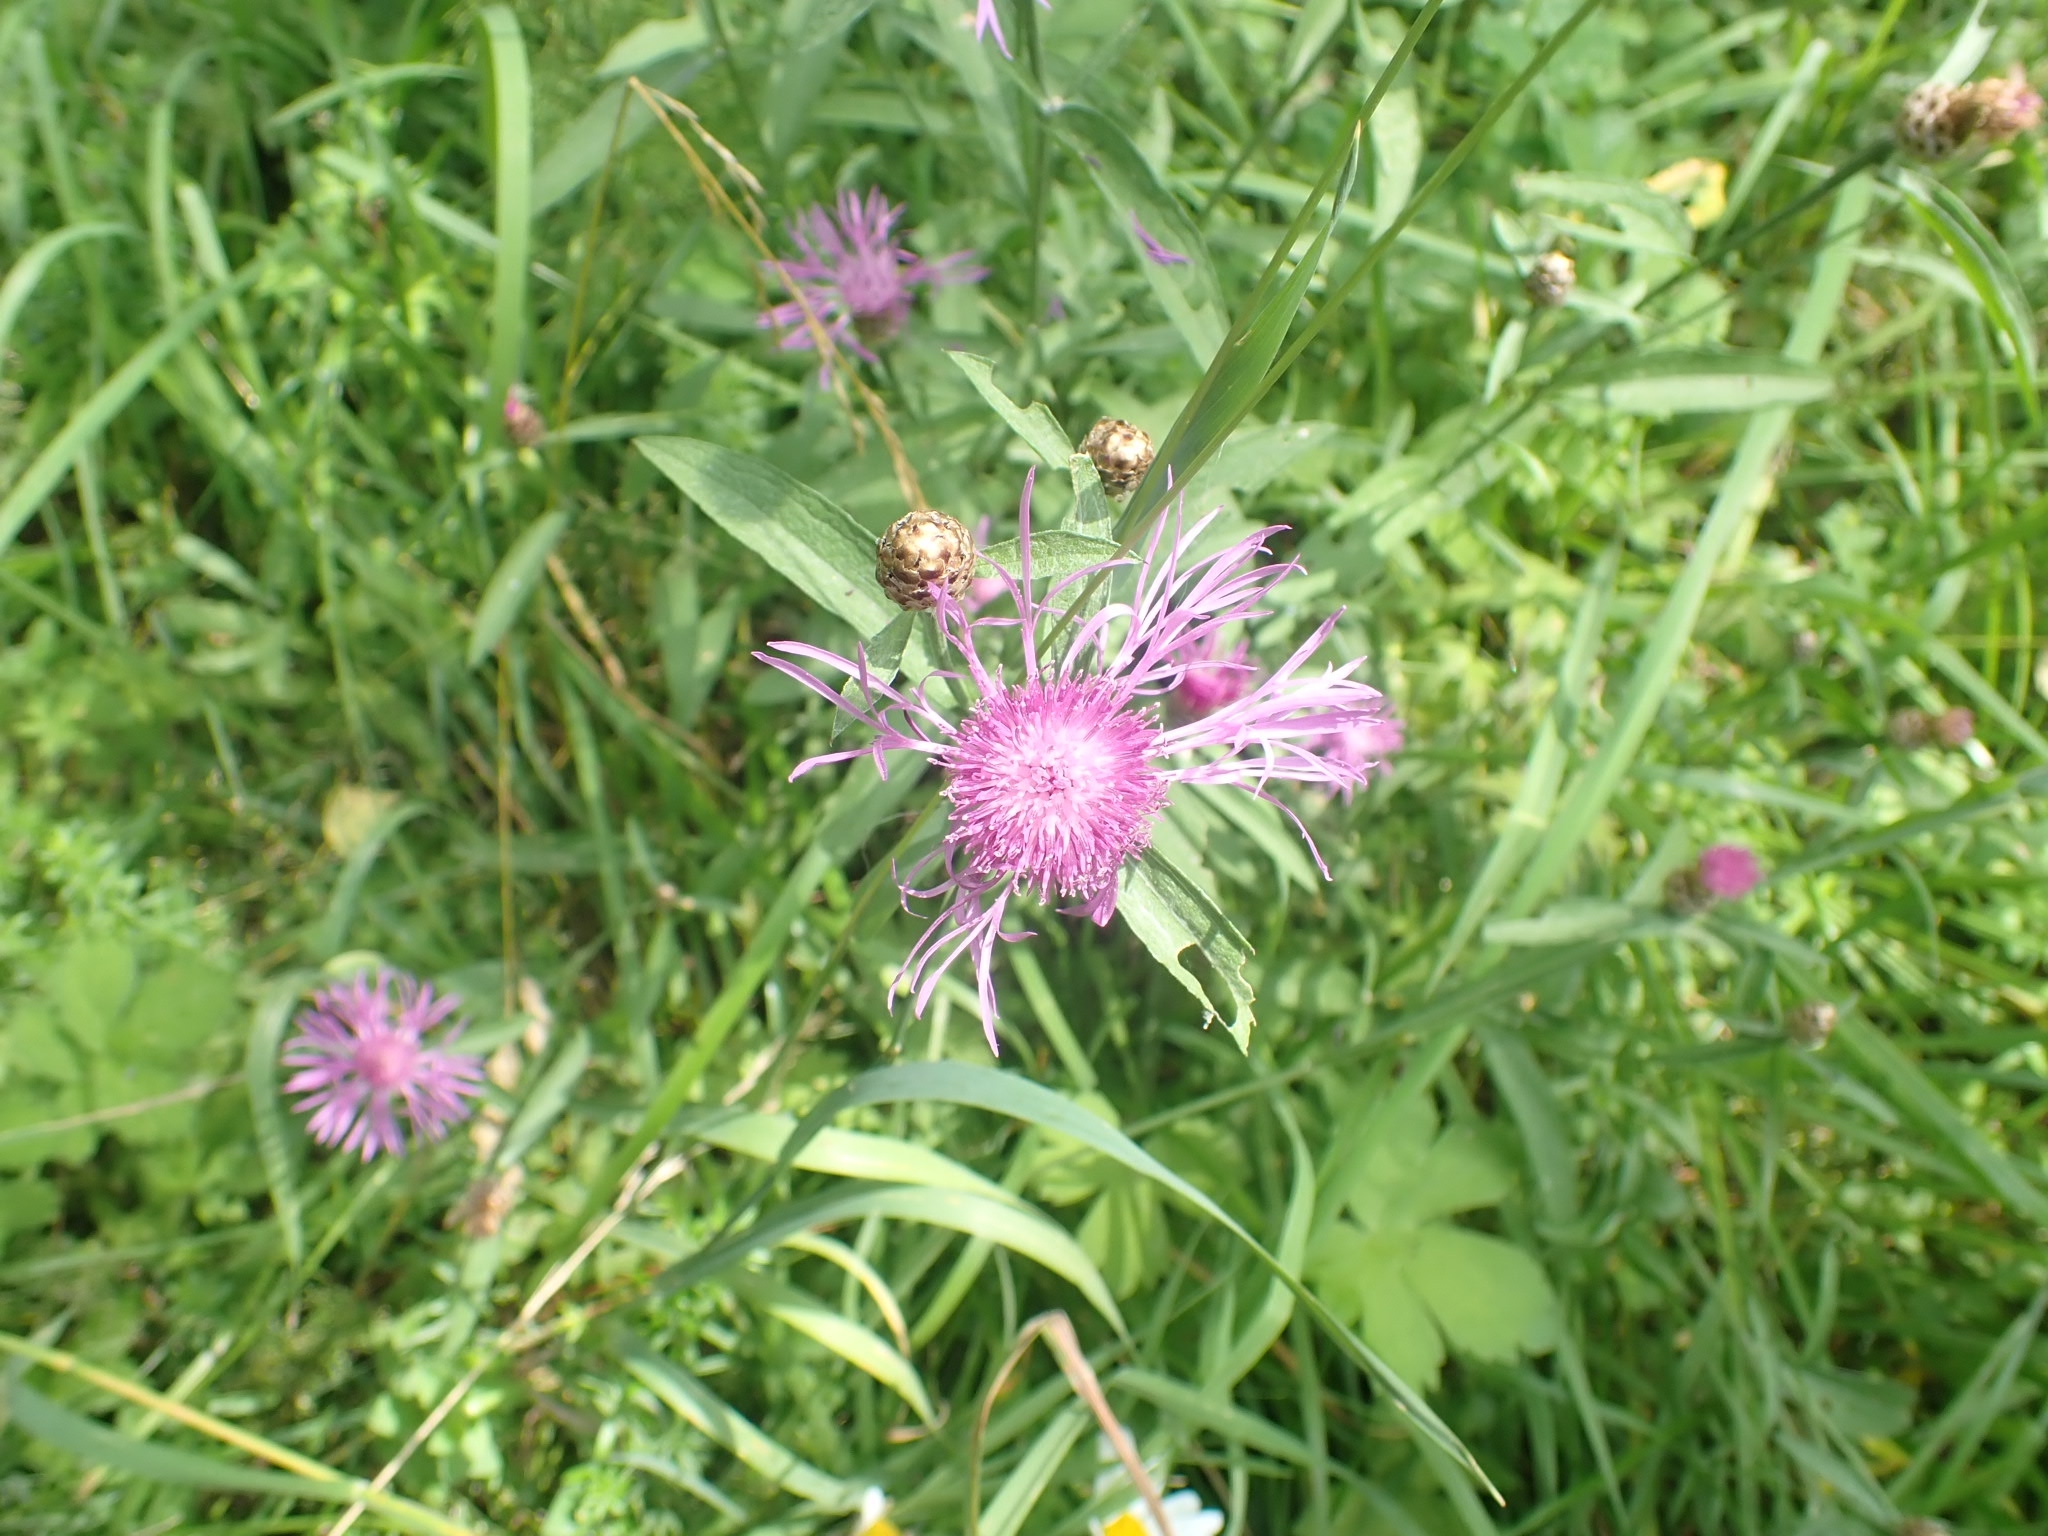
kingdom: Plantae
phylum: Tracheophyta
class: Magnoliopsida
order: Asterales
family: Asteraceae
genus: Centaurea
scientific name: Centaurea jacea
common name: Brown knapweed
